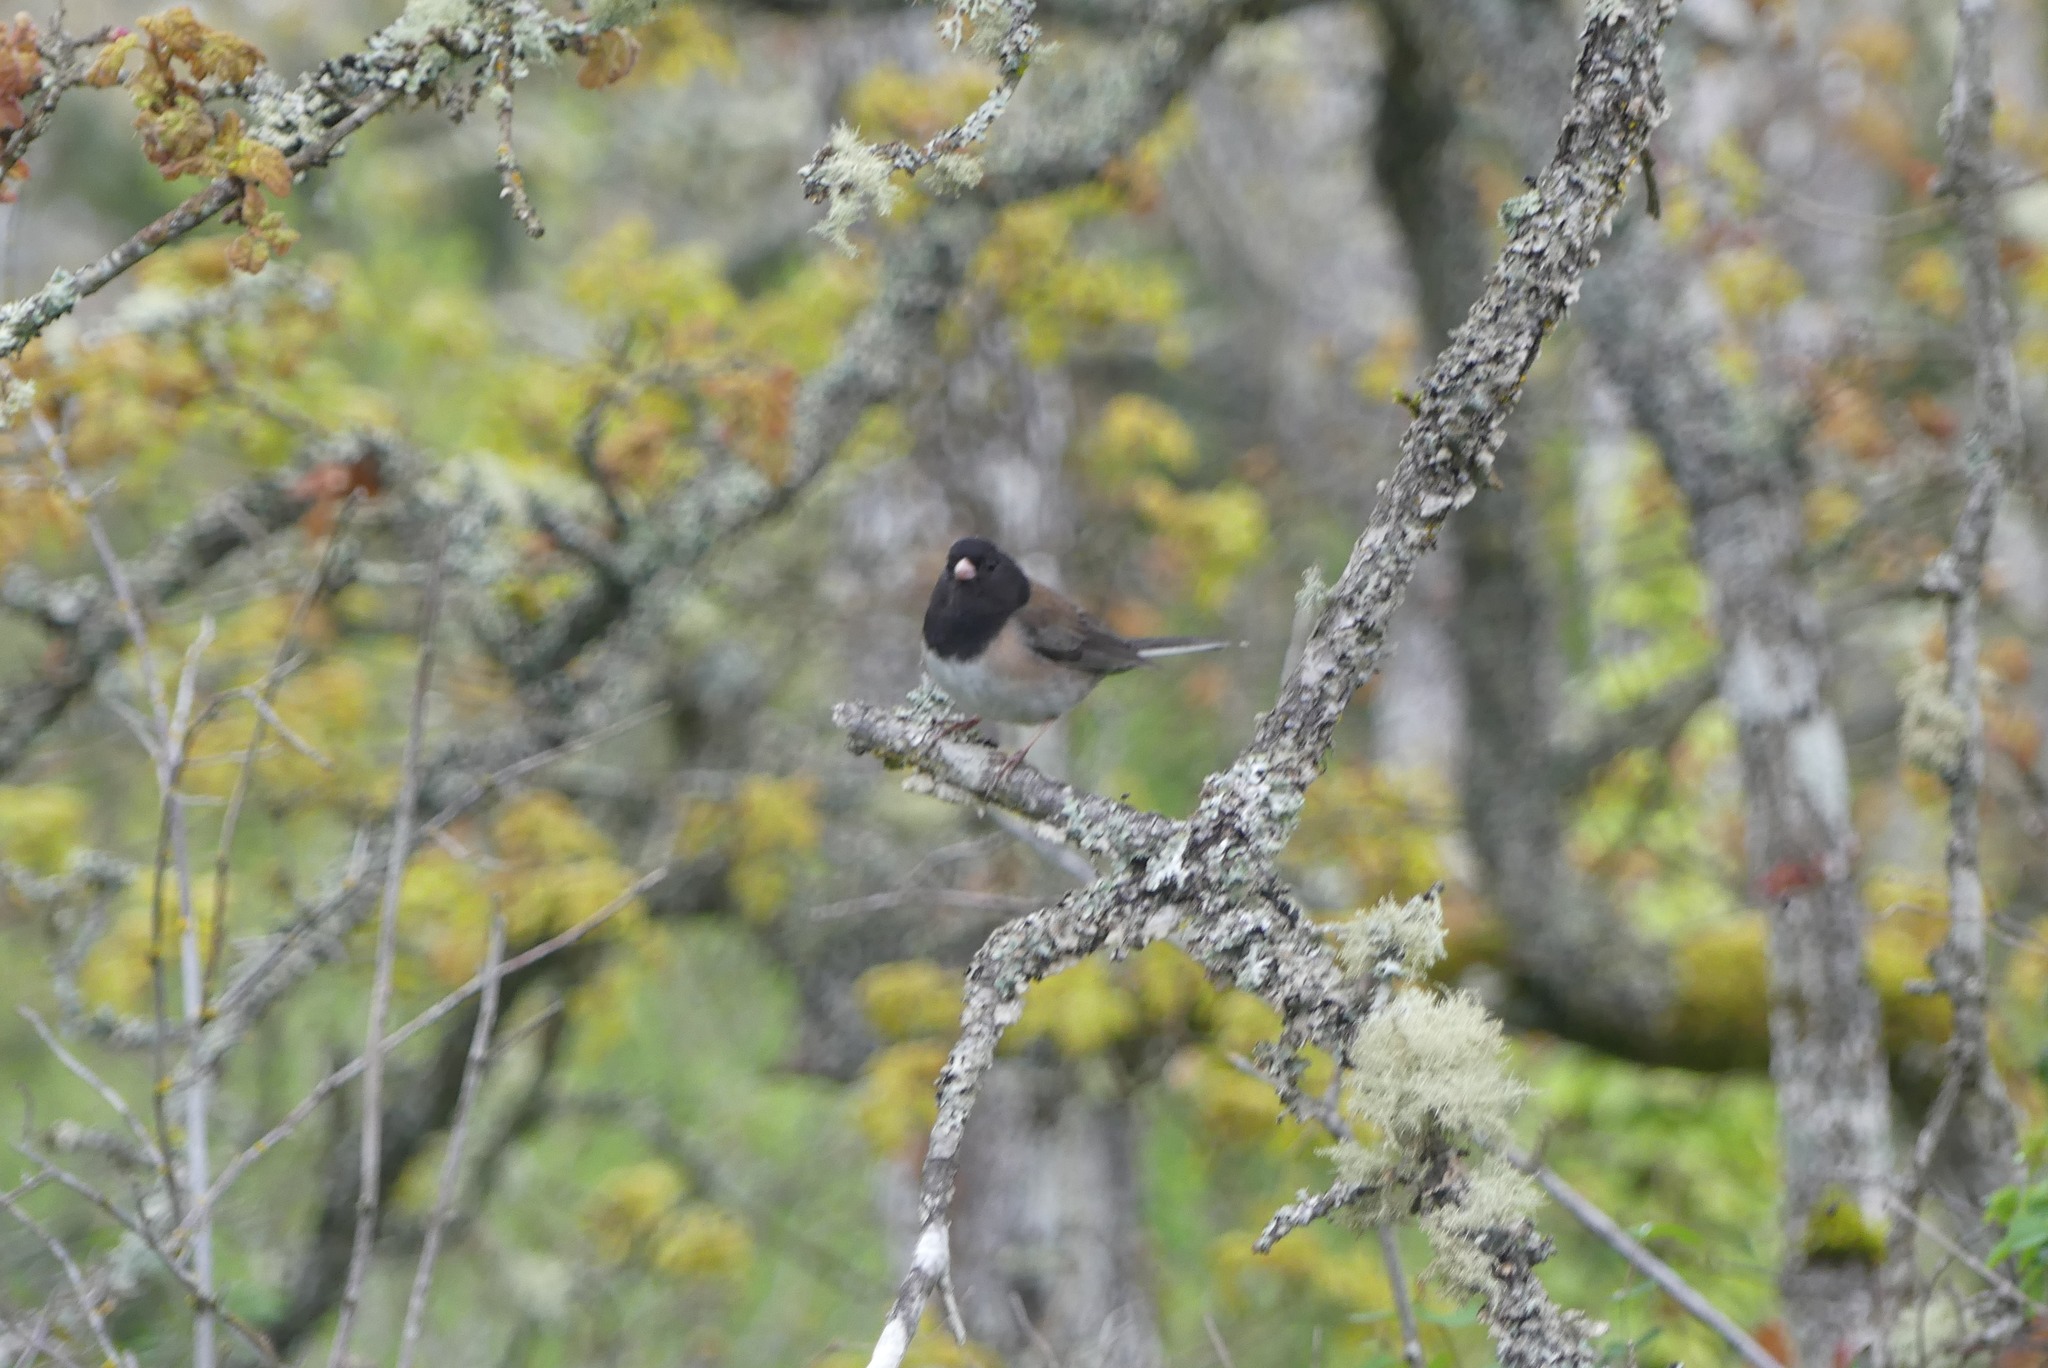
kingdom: Animalia
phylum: Chordata
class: Aves
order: Passeriformes
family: Passerellidae
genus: Junco
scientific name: Junco hyemalis
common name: Dark-eyed junco
